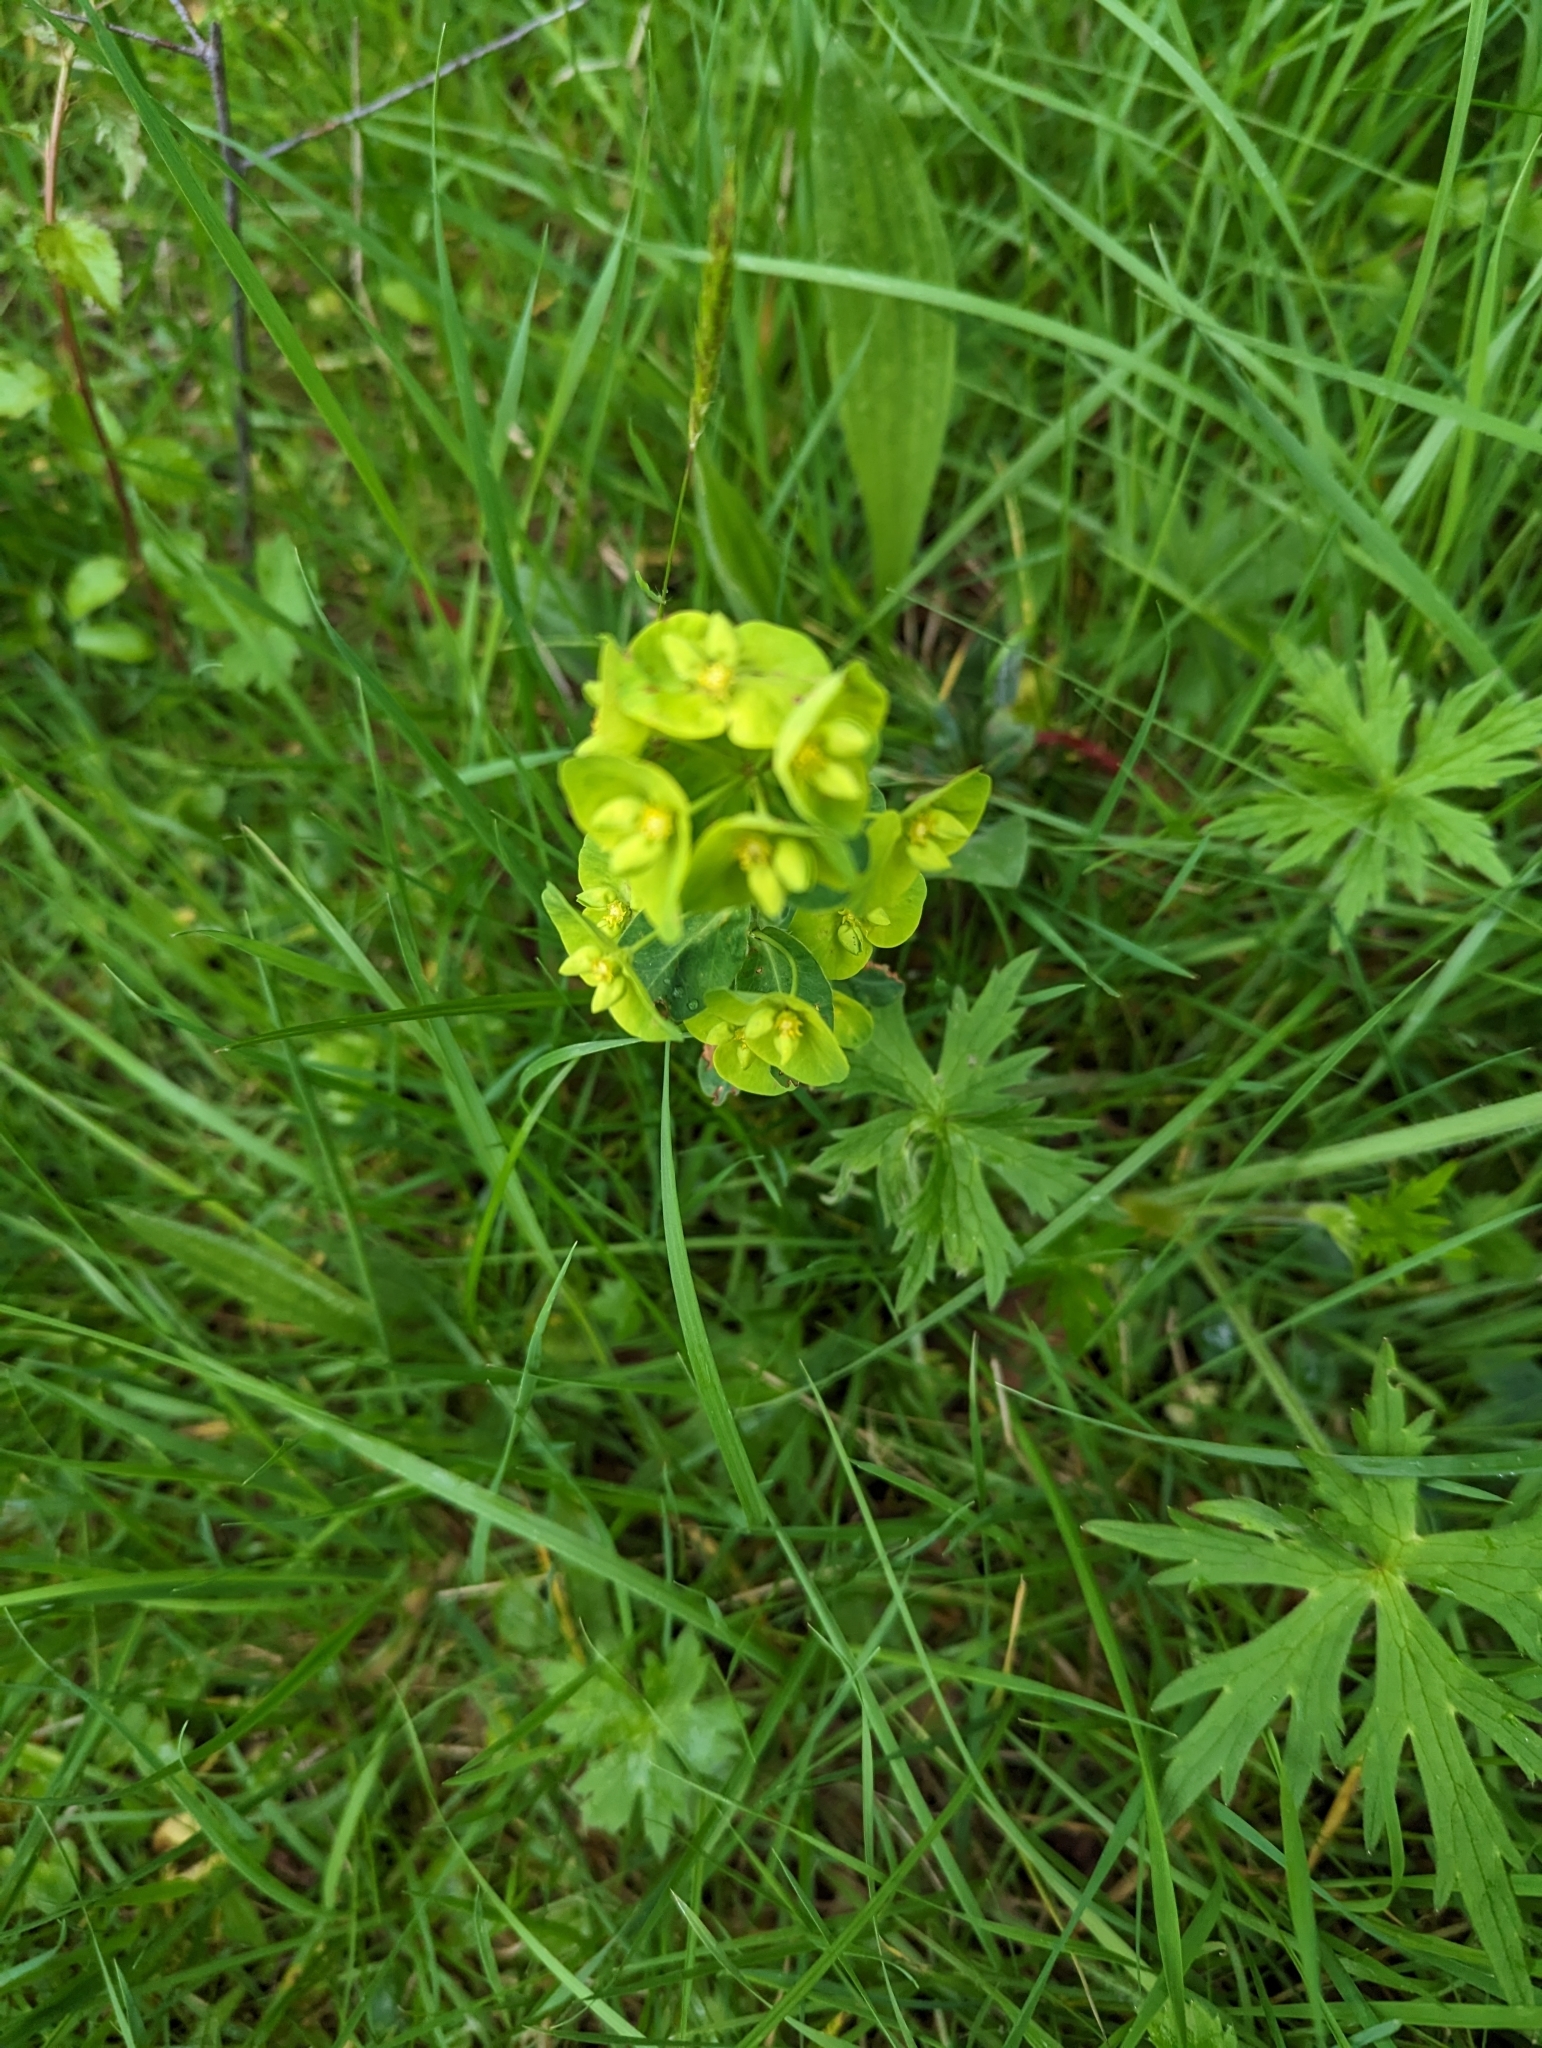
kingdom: Plantae
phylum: Tracheophyta
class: Magnoliopsida
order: Malpighiales
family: Euphorbiaceae
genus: Euphorbia
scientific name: Euphorbia amygdaloides
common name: Wood spurge
